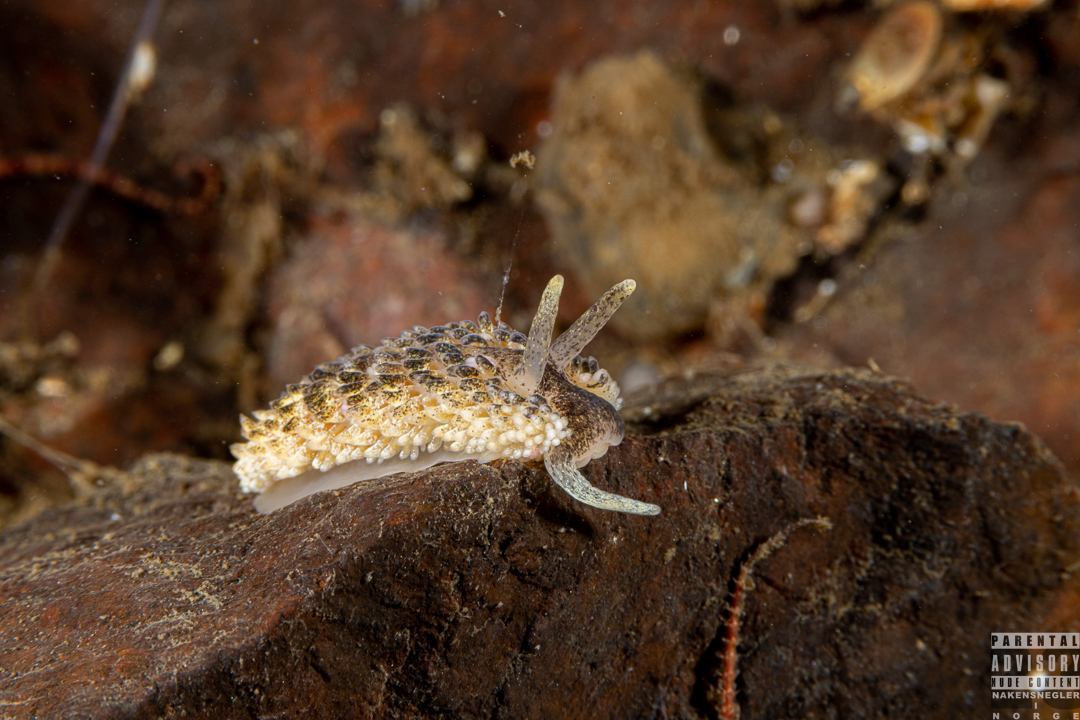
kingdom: Animalia
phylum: Mollusca
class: Gastropoda
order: Nudibranchia
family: Aeolidiidae
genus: Aeolidia
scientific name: Aeolidia papillosa
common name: Common grey sea slug
